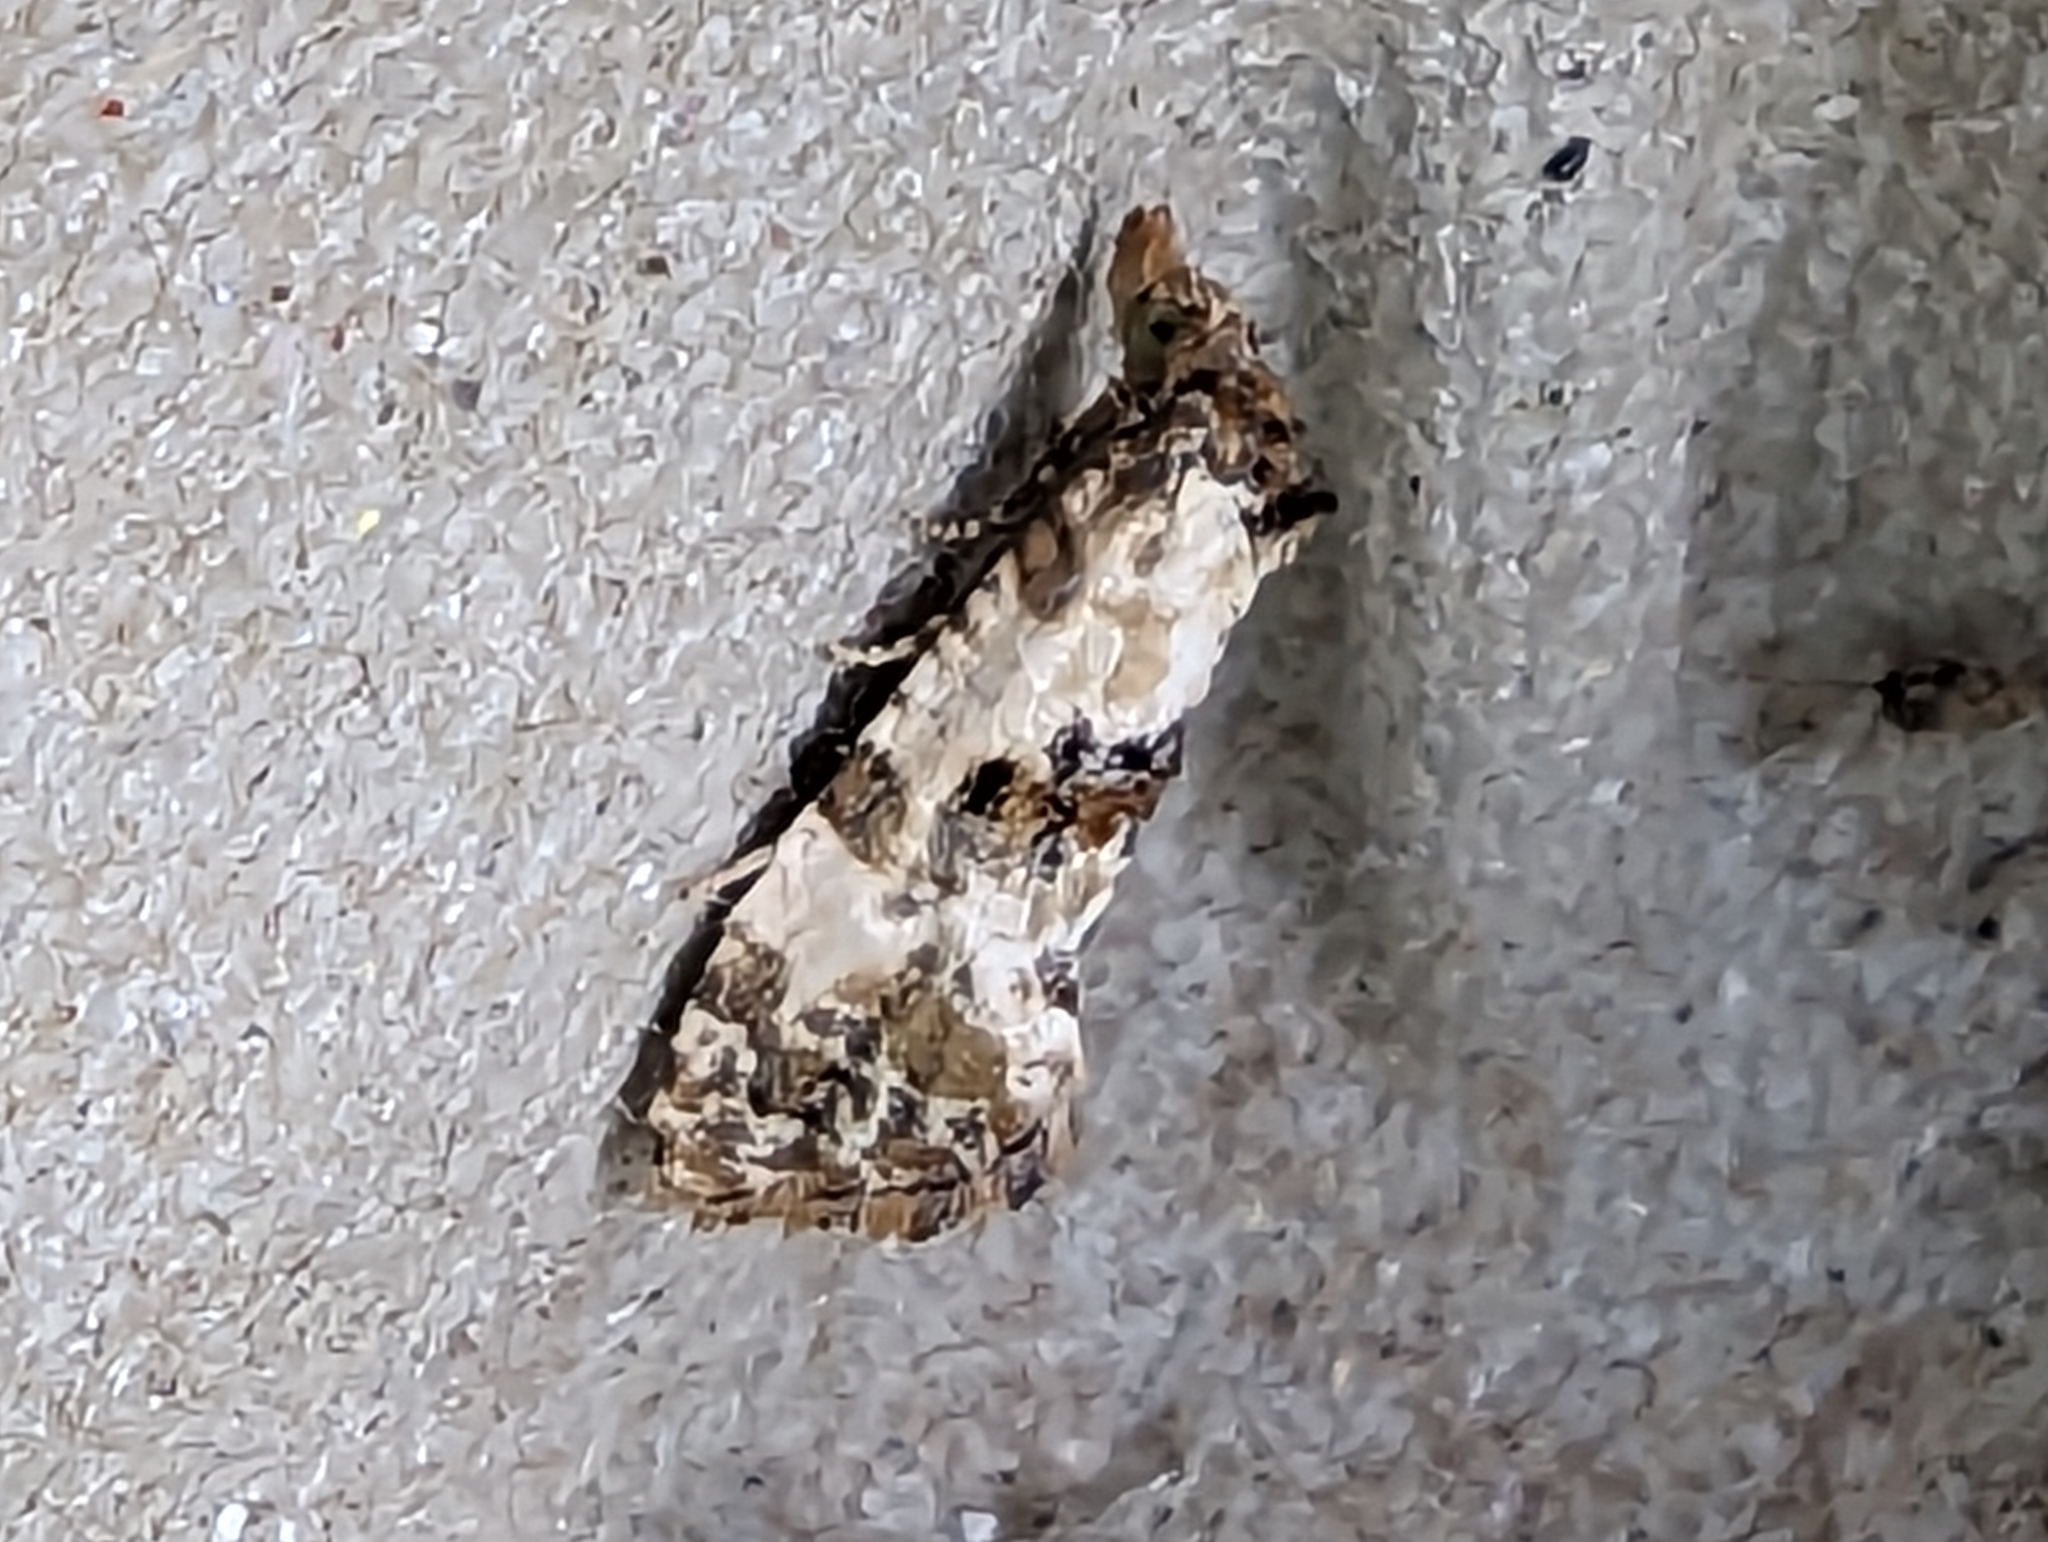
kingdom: Animalia
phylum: Arthropoda
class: Insecta
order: Lepidoptera
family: Tortricidae
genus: Cochylis
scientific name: Cochylis molliculana
